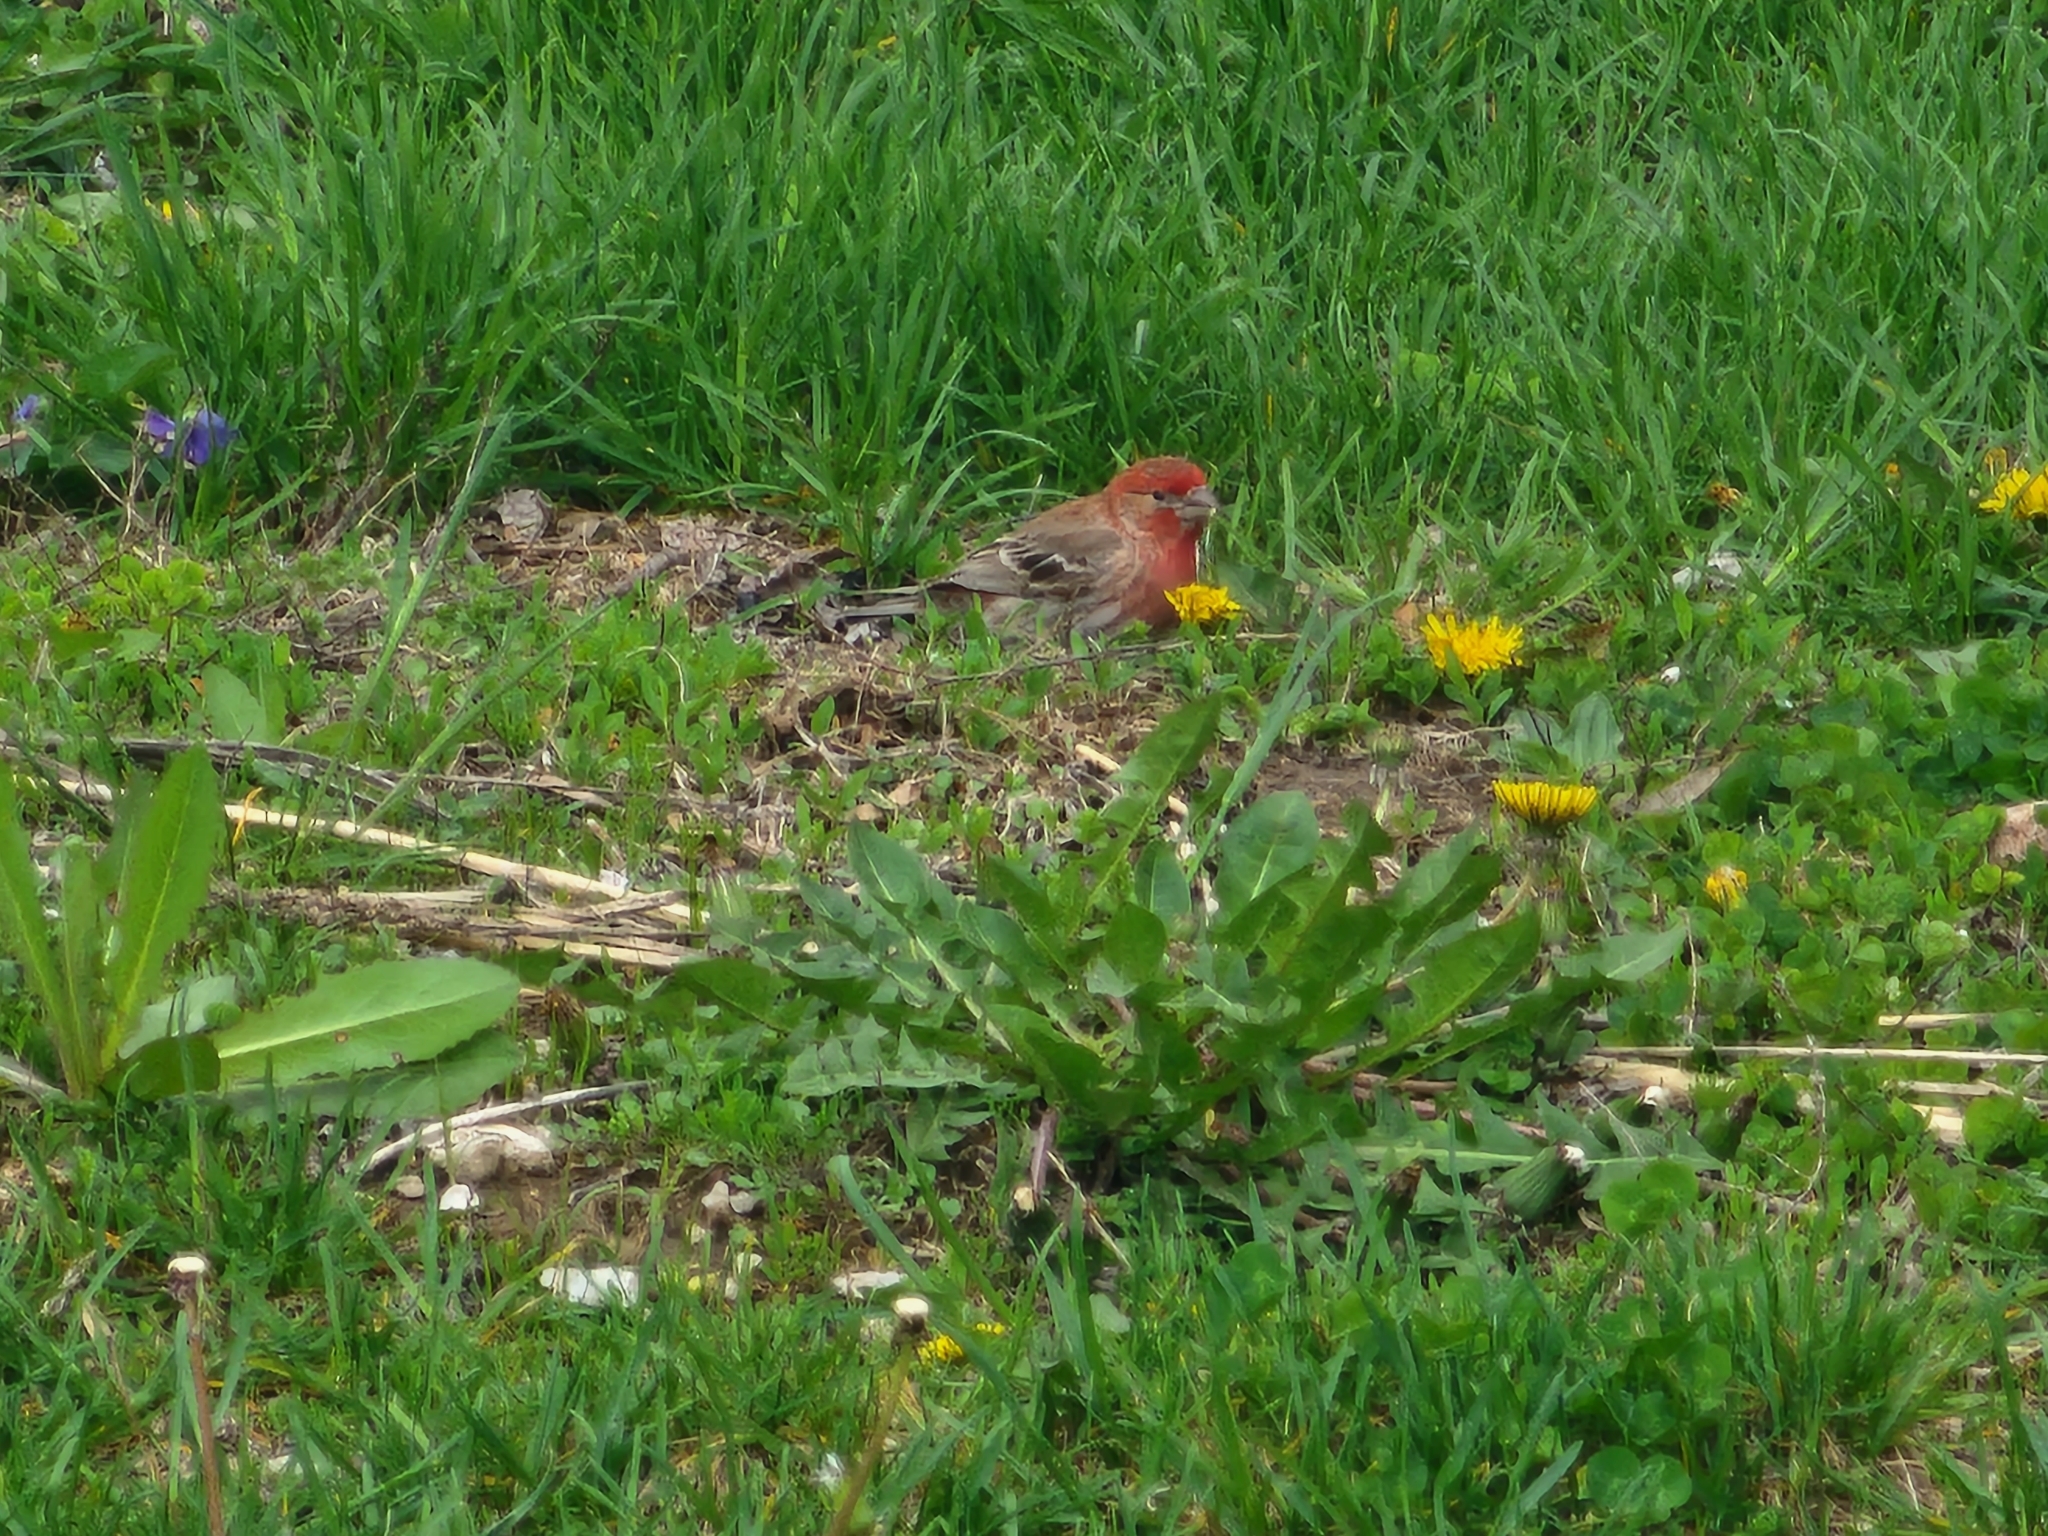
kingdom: Animalia
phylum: Chordata
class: Aves
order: Passeriformes
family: Fringillidae
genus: Haemorhous
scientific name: Haemorhous mexicanus
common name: House finch
